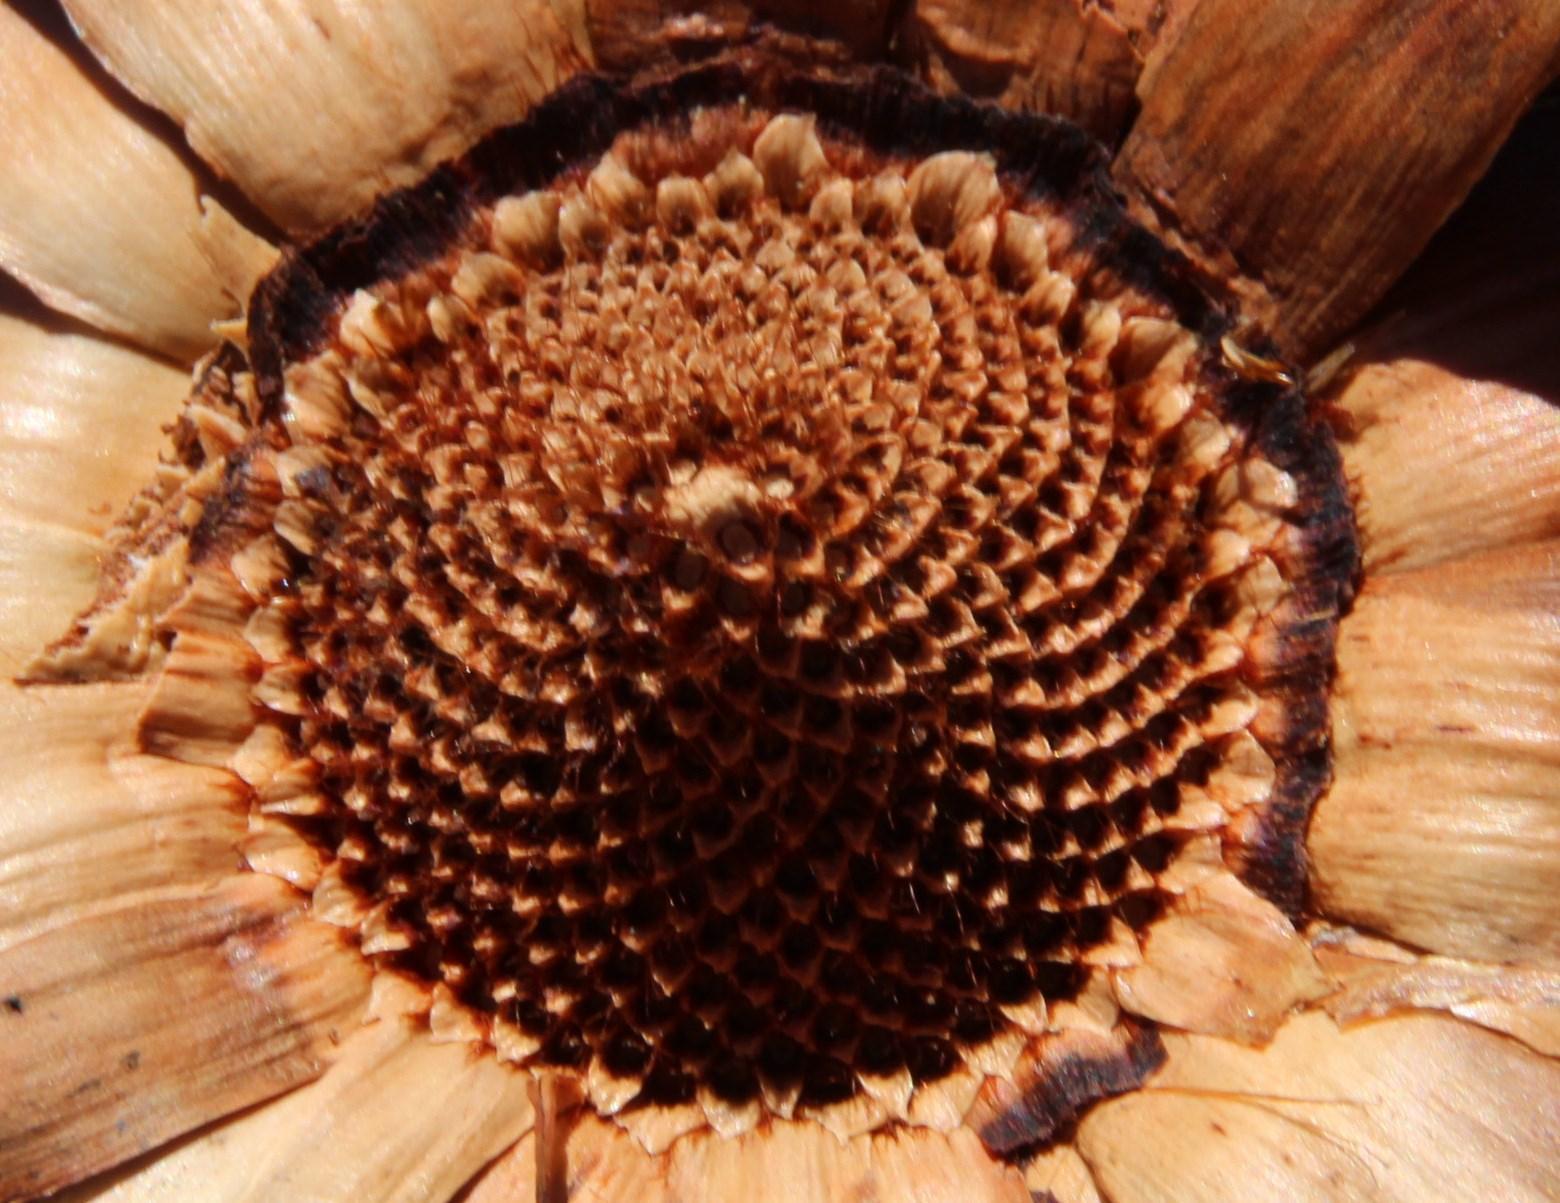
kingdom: Plantae
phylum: Tracheophyta
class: Magnoliopsida
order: Proteales
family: Proteaceae
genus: Protea
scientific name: Protea effusa
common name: Scarlet sugarbush
